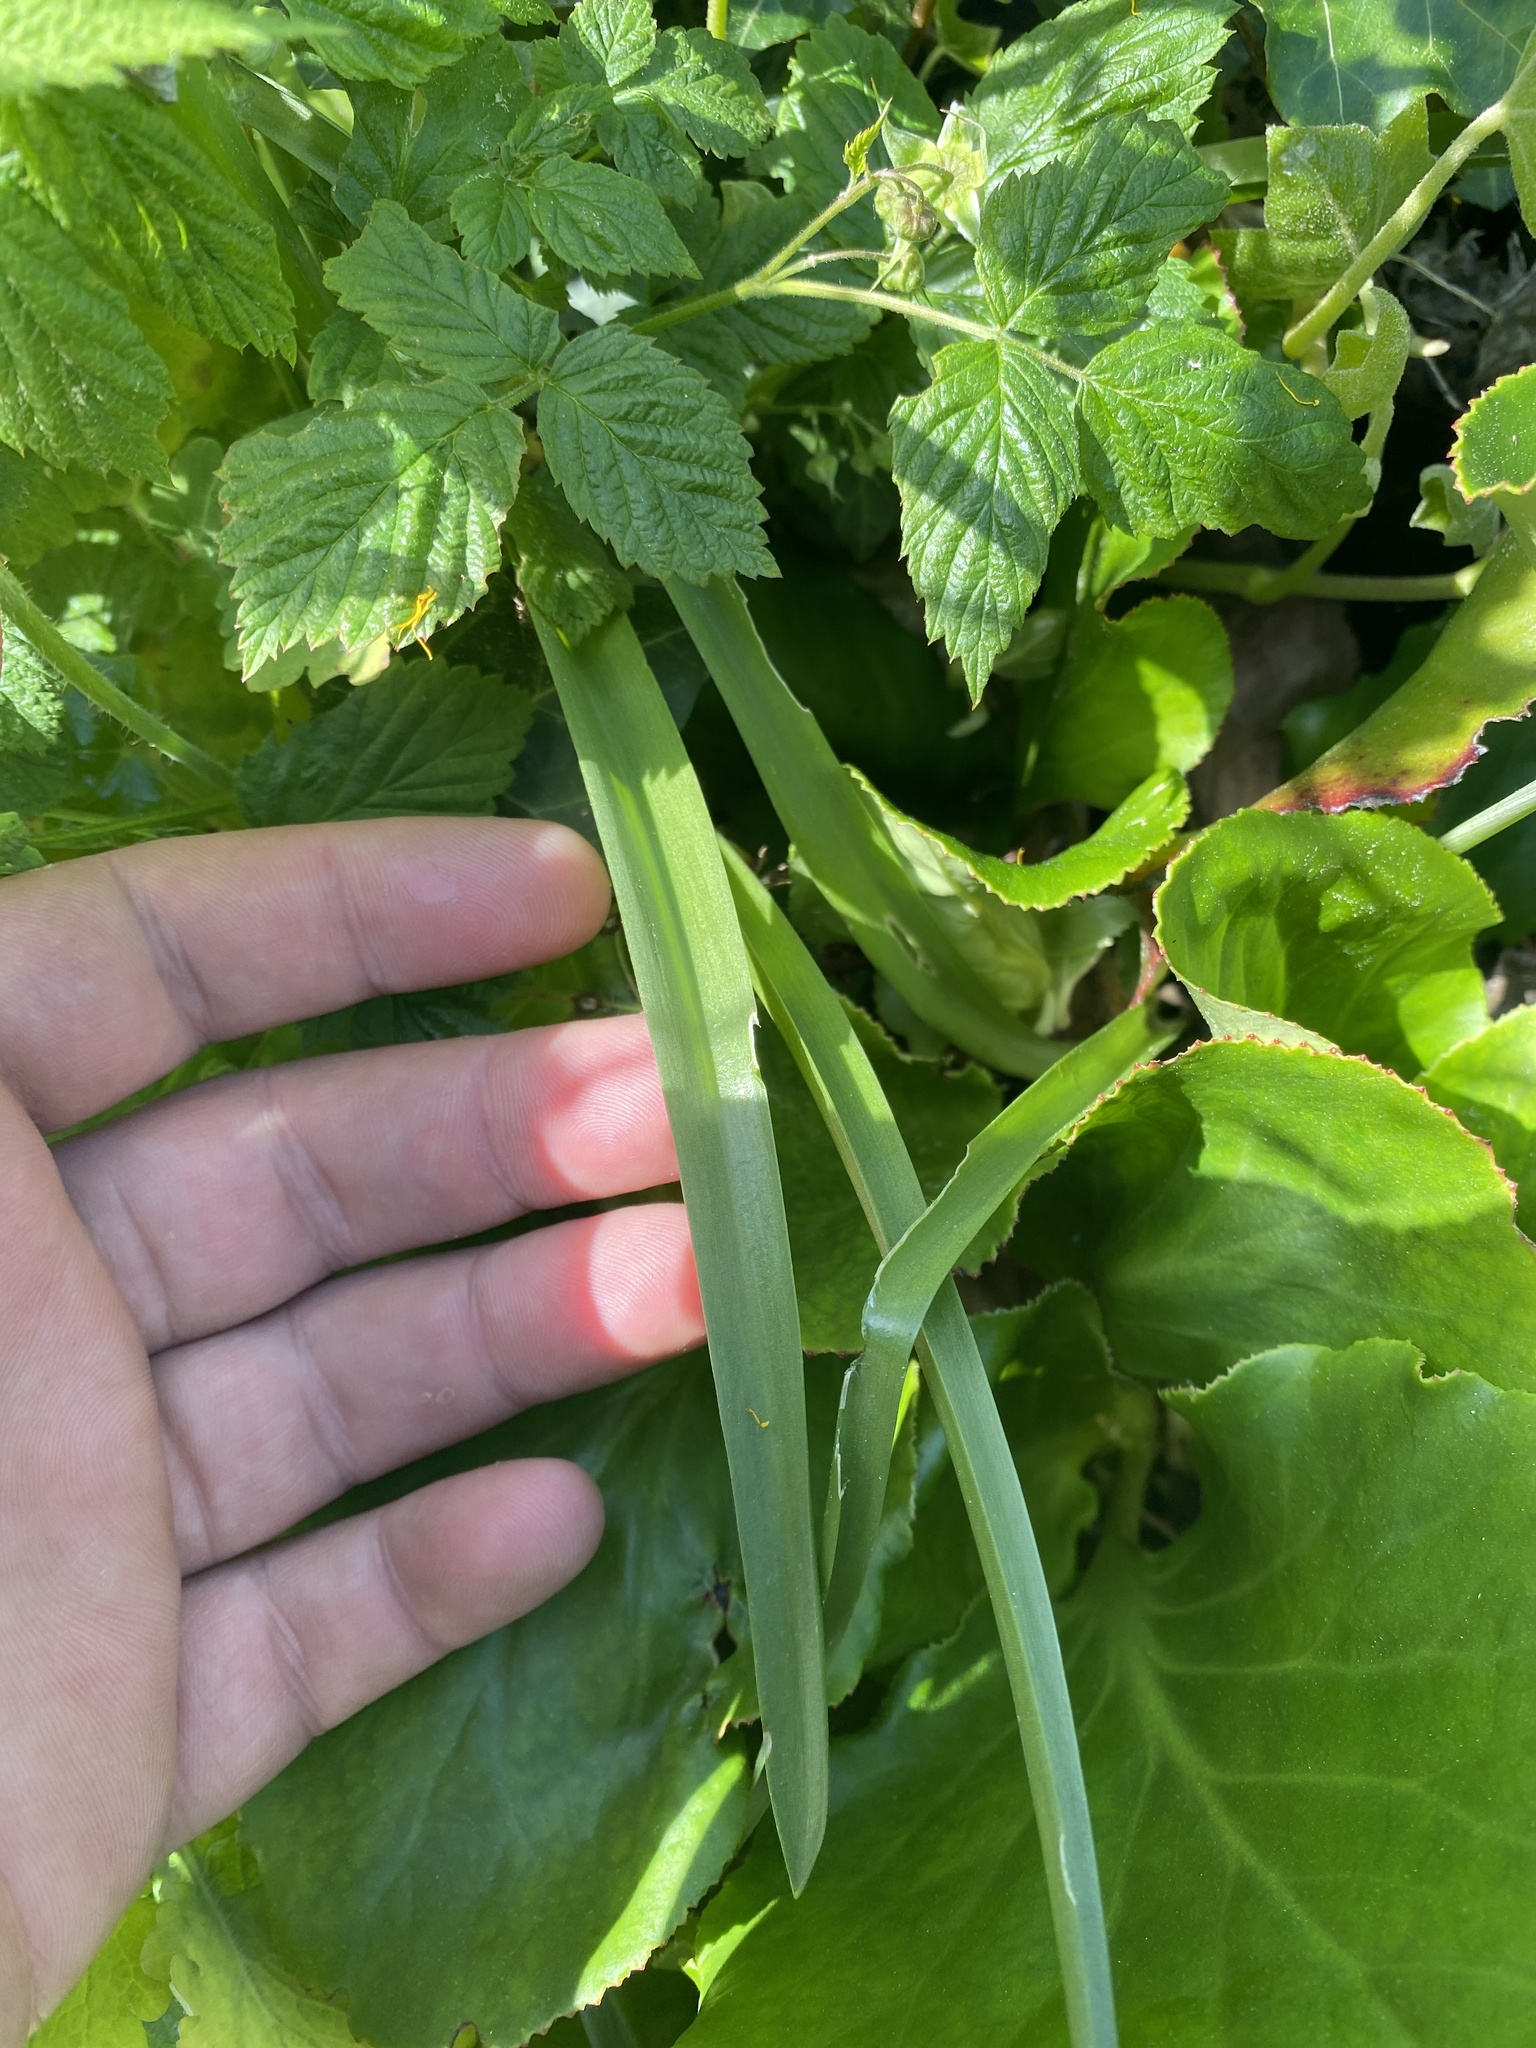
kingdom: Plantae
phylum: Tracheophyta
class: Liliopsida
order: Asparagales
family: Asparagaceae
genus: Hyacinthoides
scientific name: Hyacinthoides massartiana
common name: Hyacinthoides
